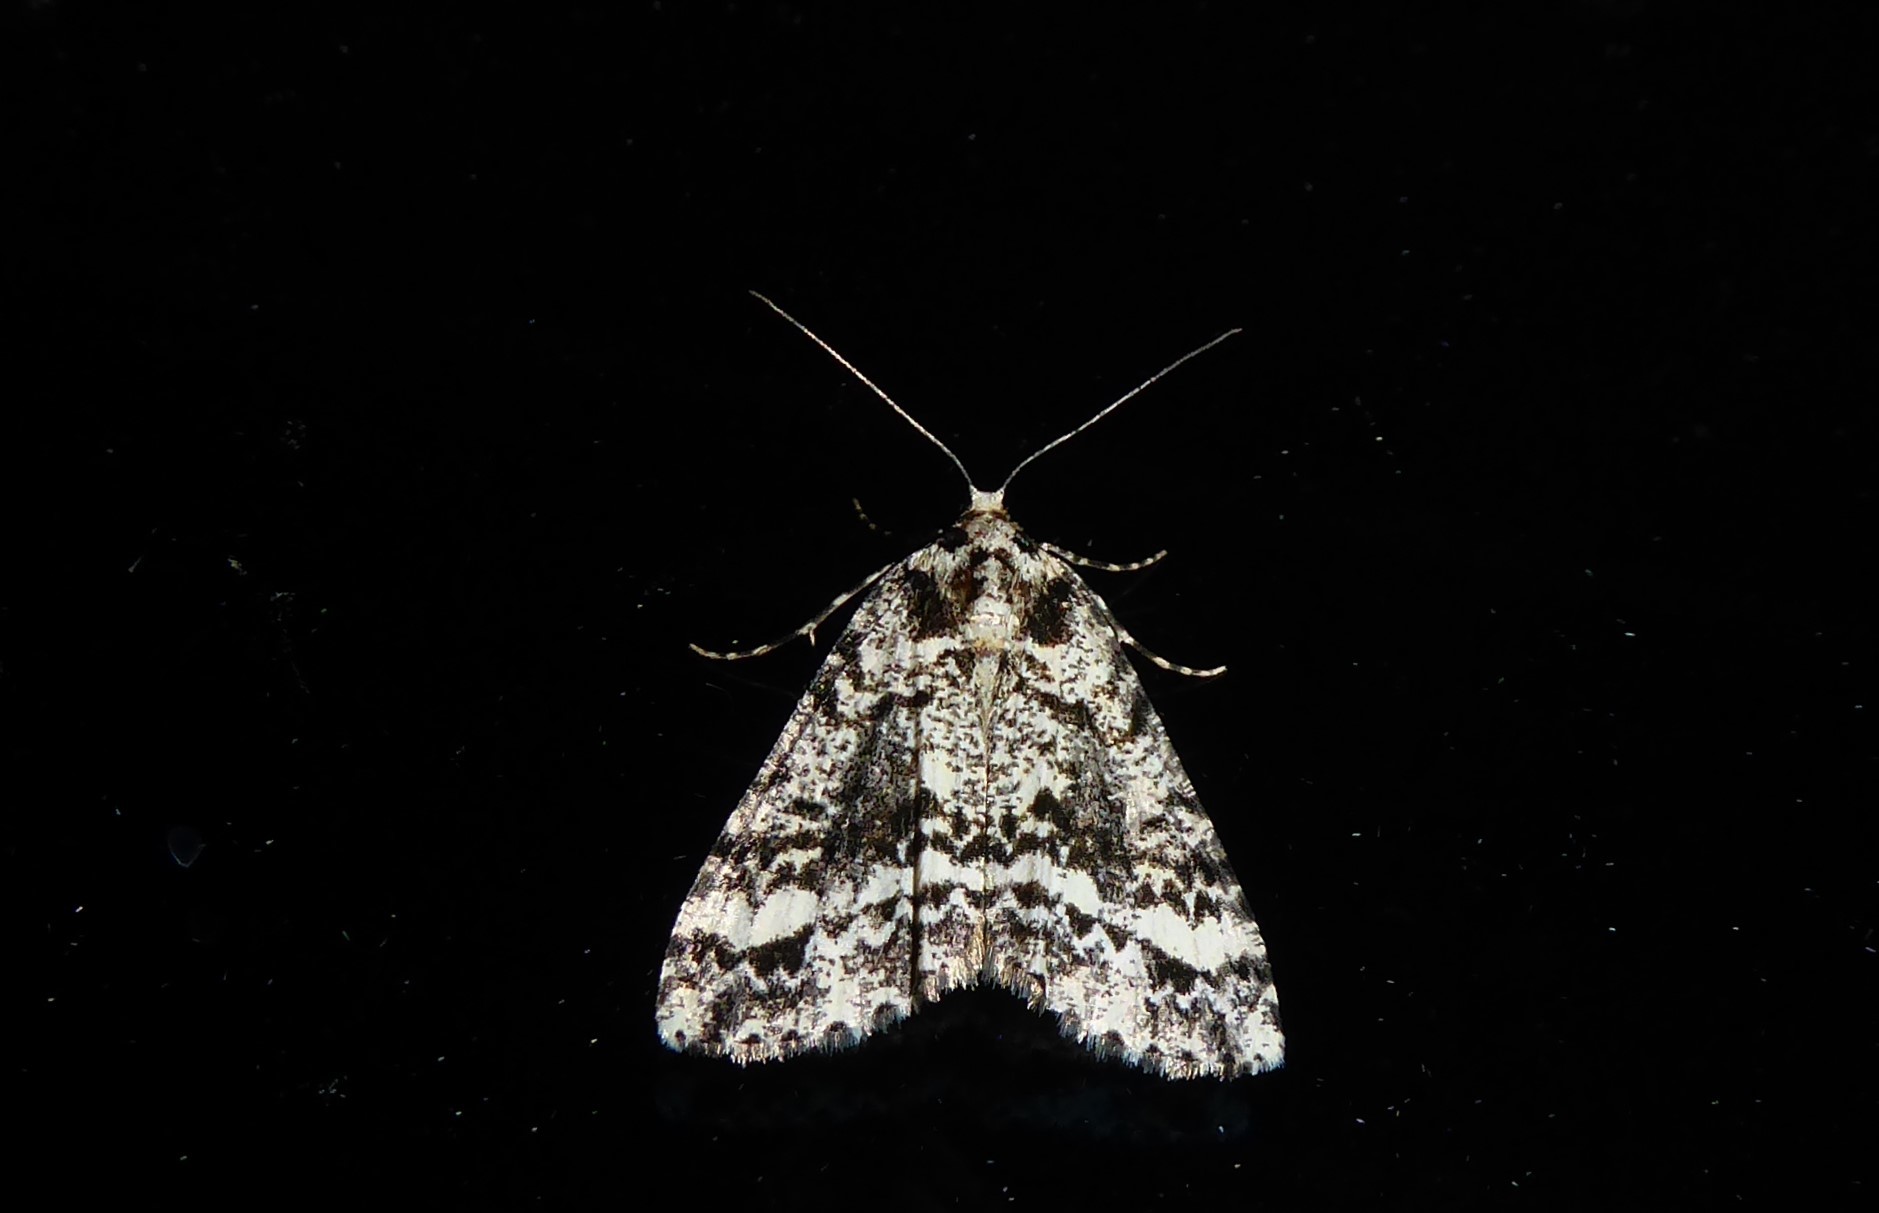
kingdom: Animalia
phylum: Arthropoda
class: Insecta
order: Lepidoptera
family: Geometridae
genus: Pseudocoremia
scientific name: Pseudocoremia leucelaea
